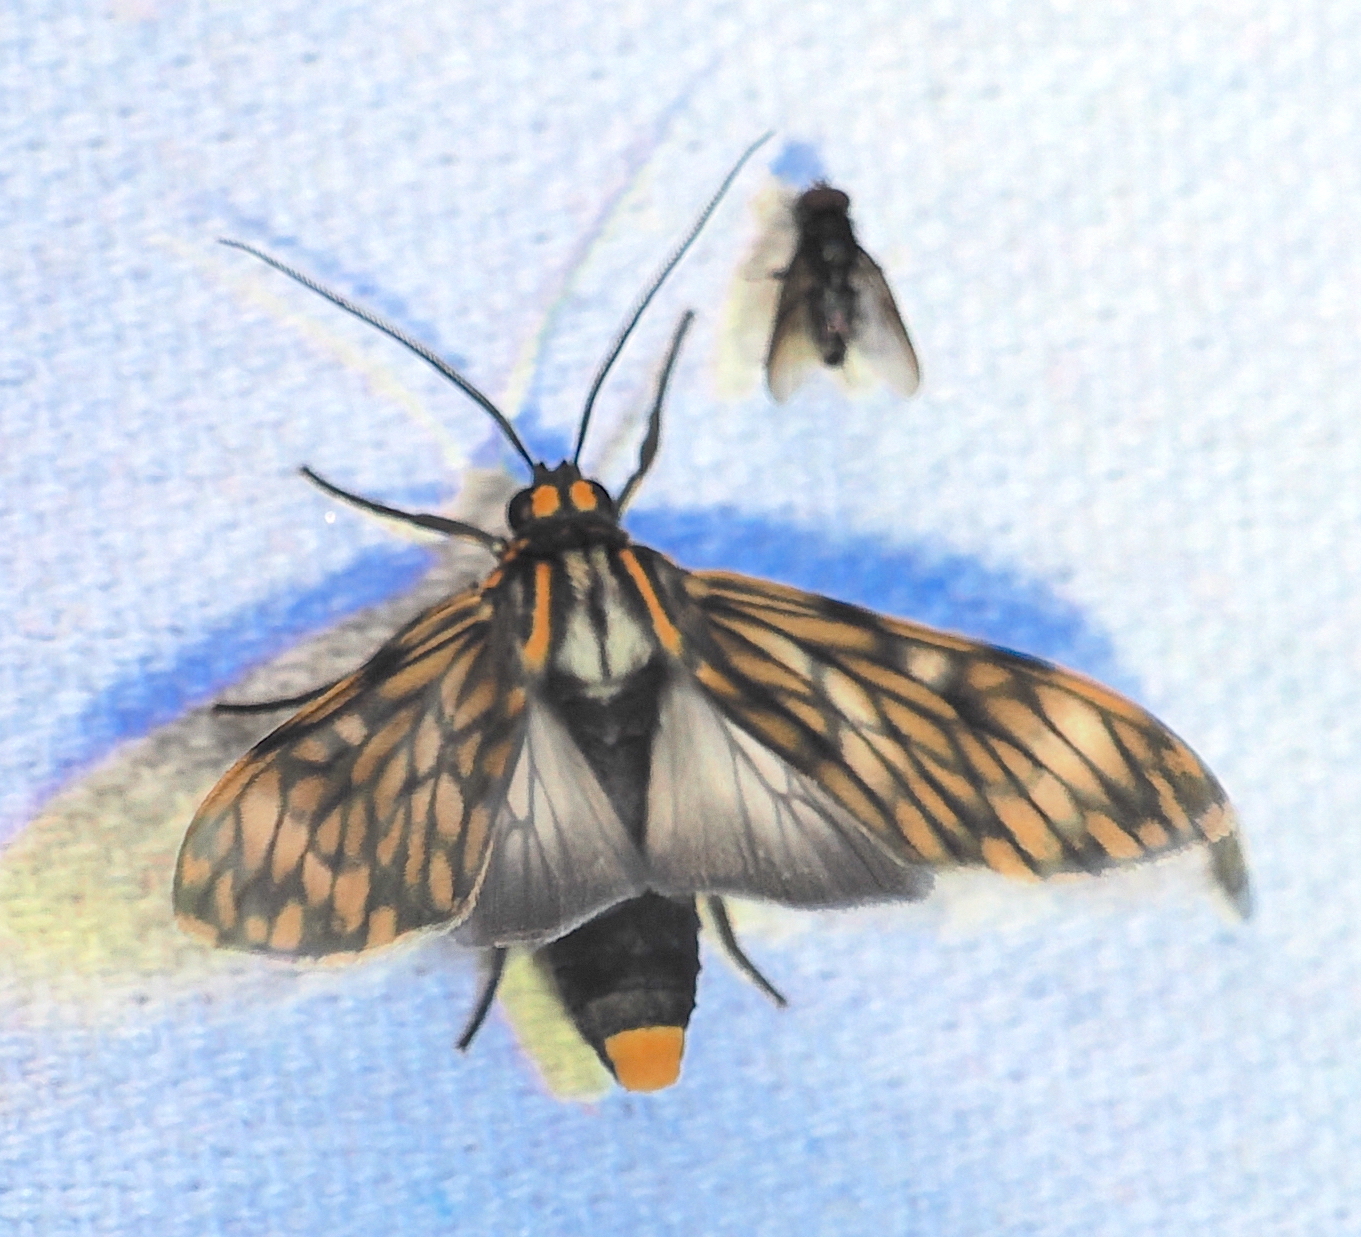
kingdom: Animalia
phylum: Arthropoda
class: Insecta
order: Lepidoptera
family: Erebidae
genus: Theages
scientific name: Theages flavicaput
